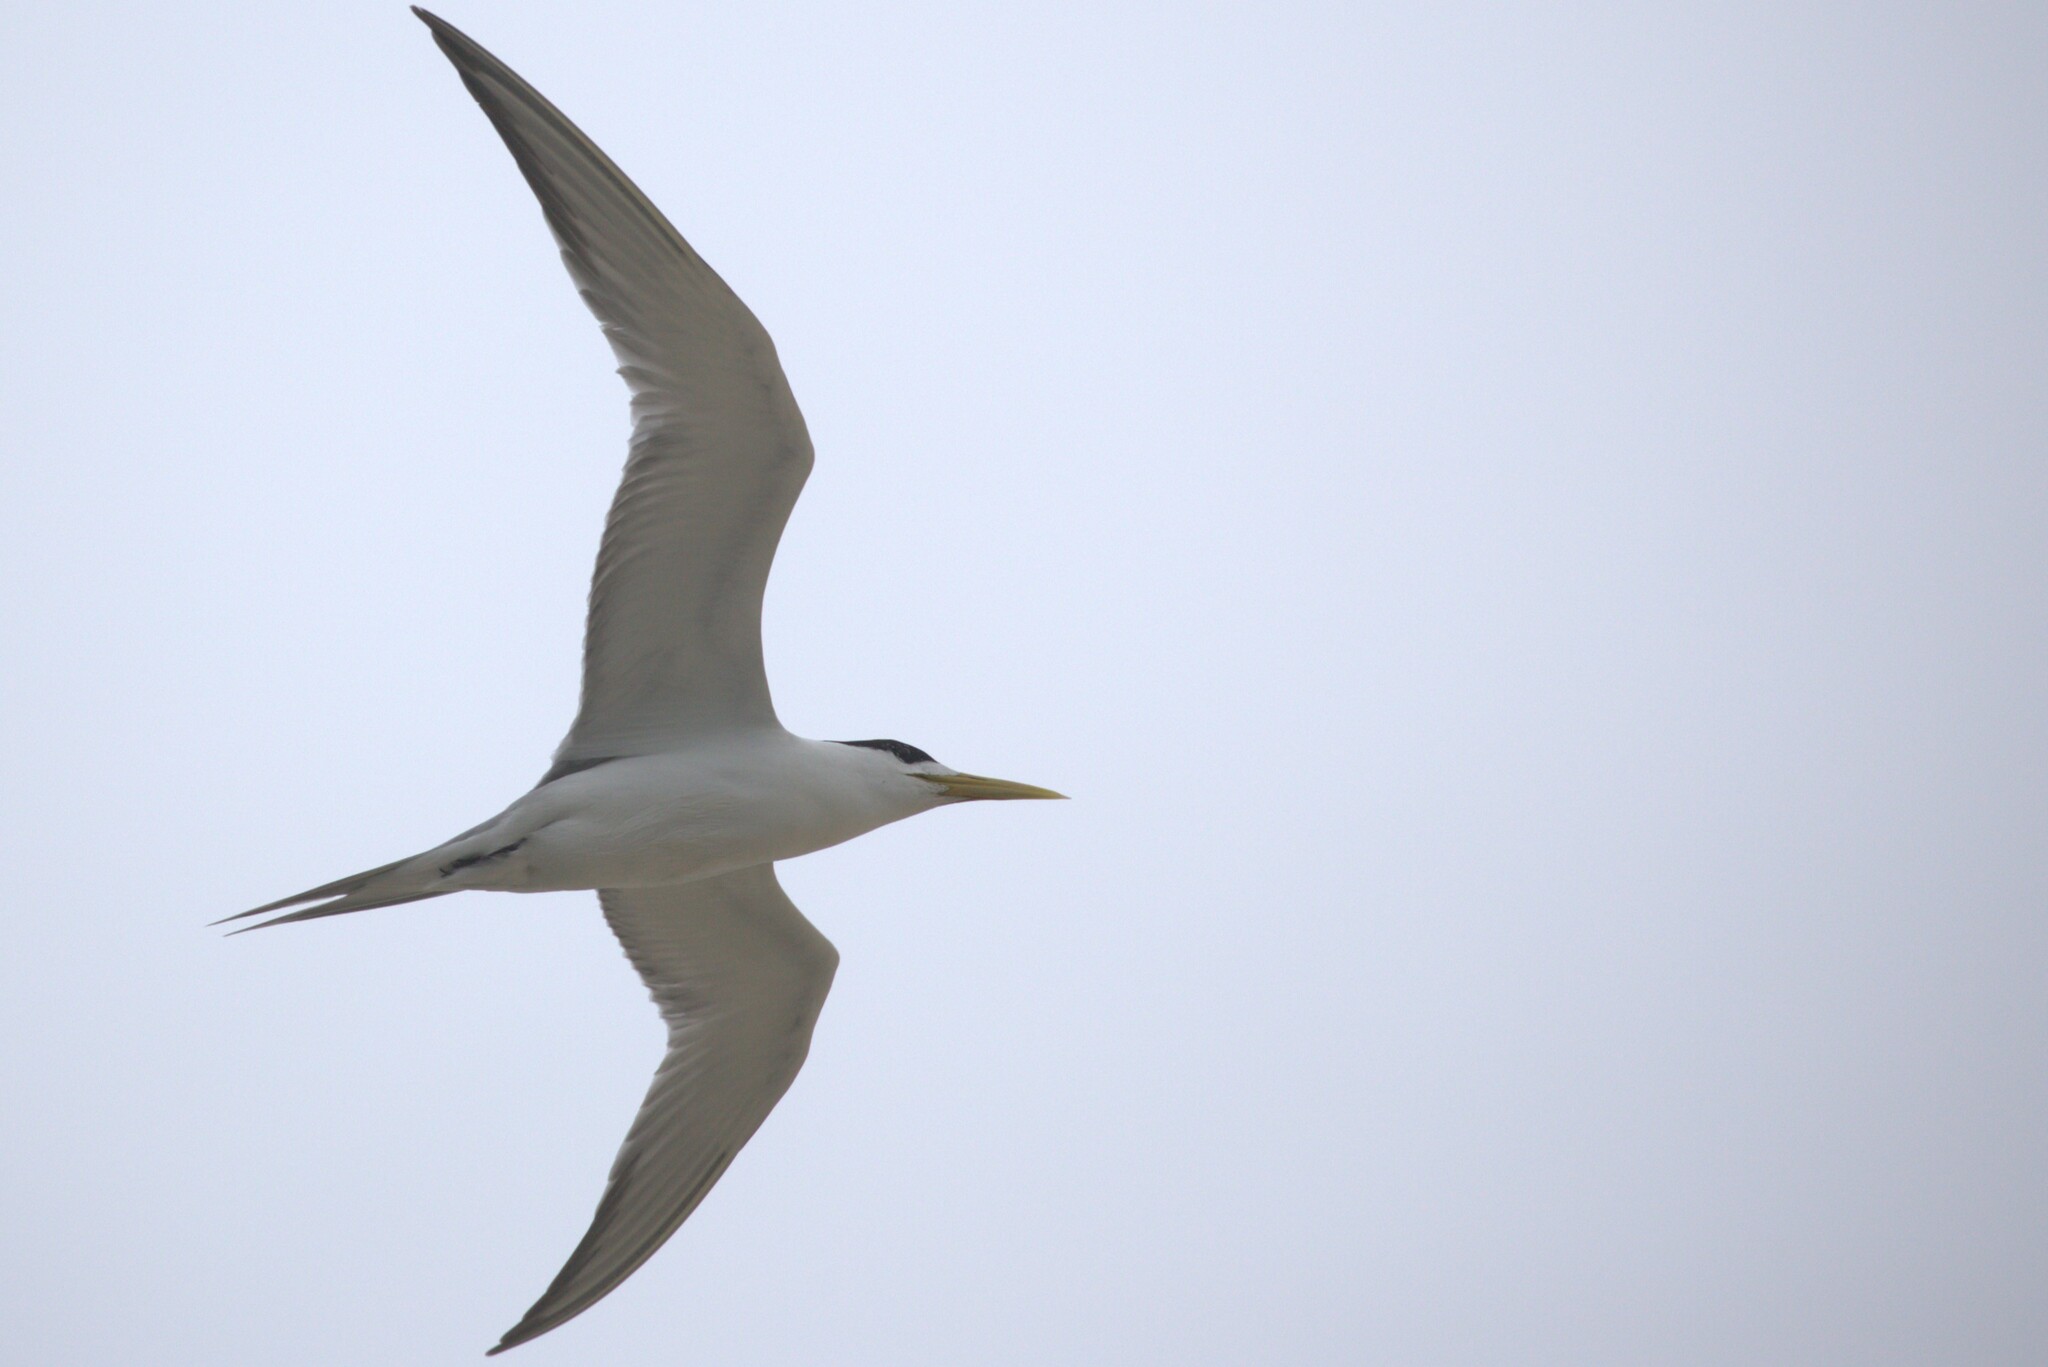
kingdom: Animalia
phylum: Chordata
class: Aves
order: Charadriiformes
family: Laridae
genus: Thalasseus
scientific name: Thalasseus bergii
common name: Greater crested tern
